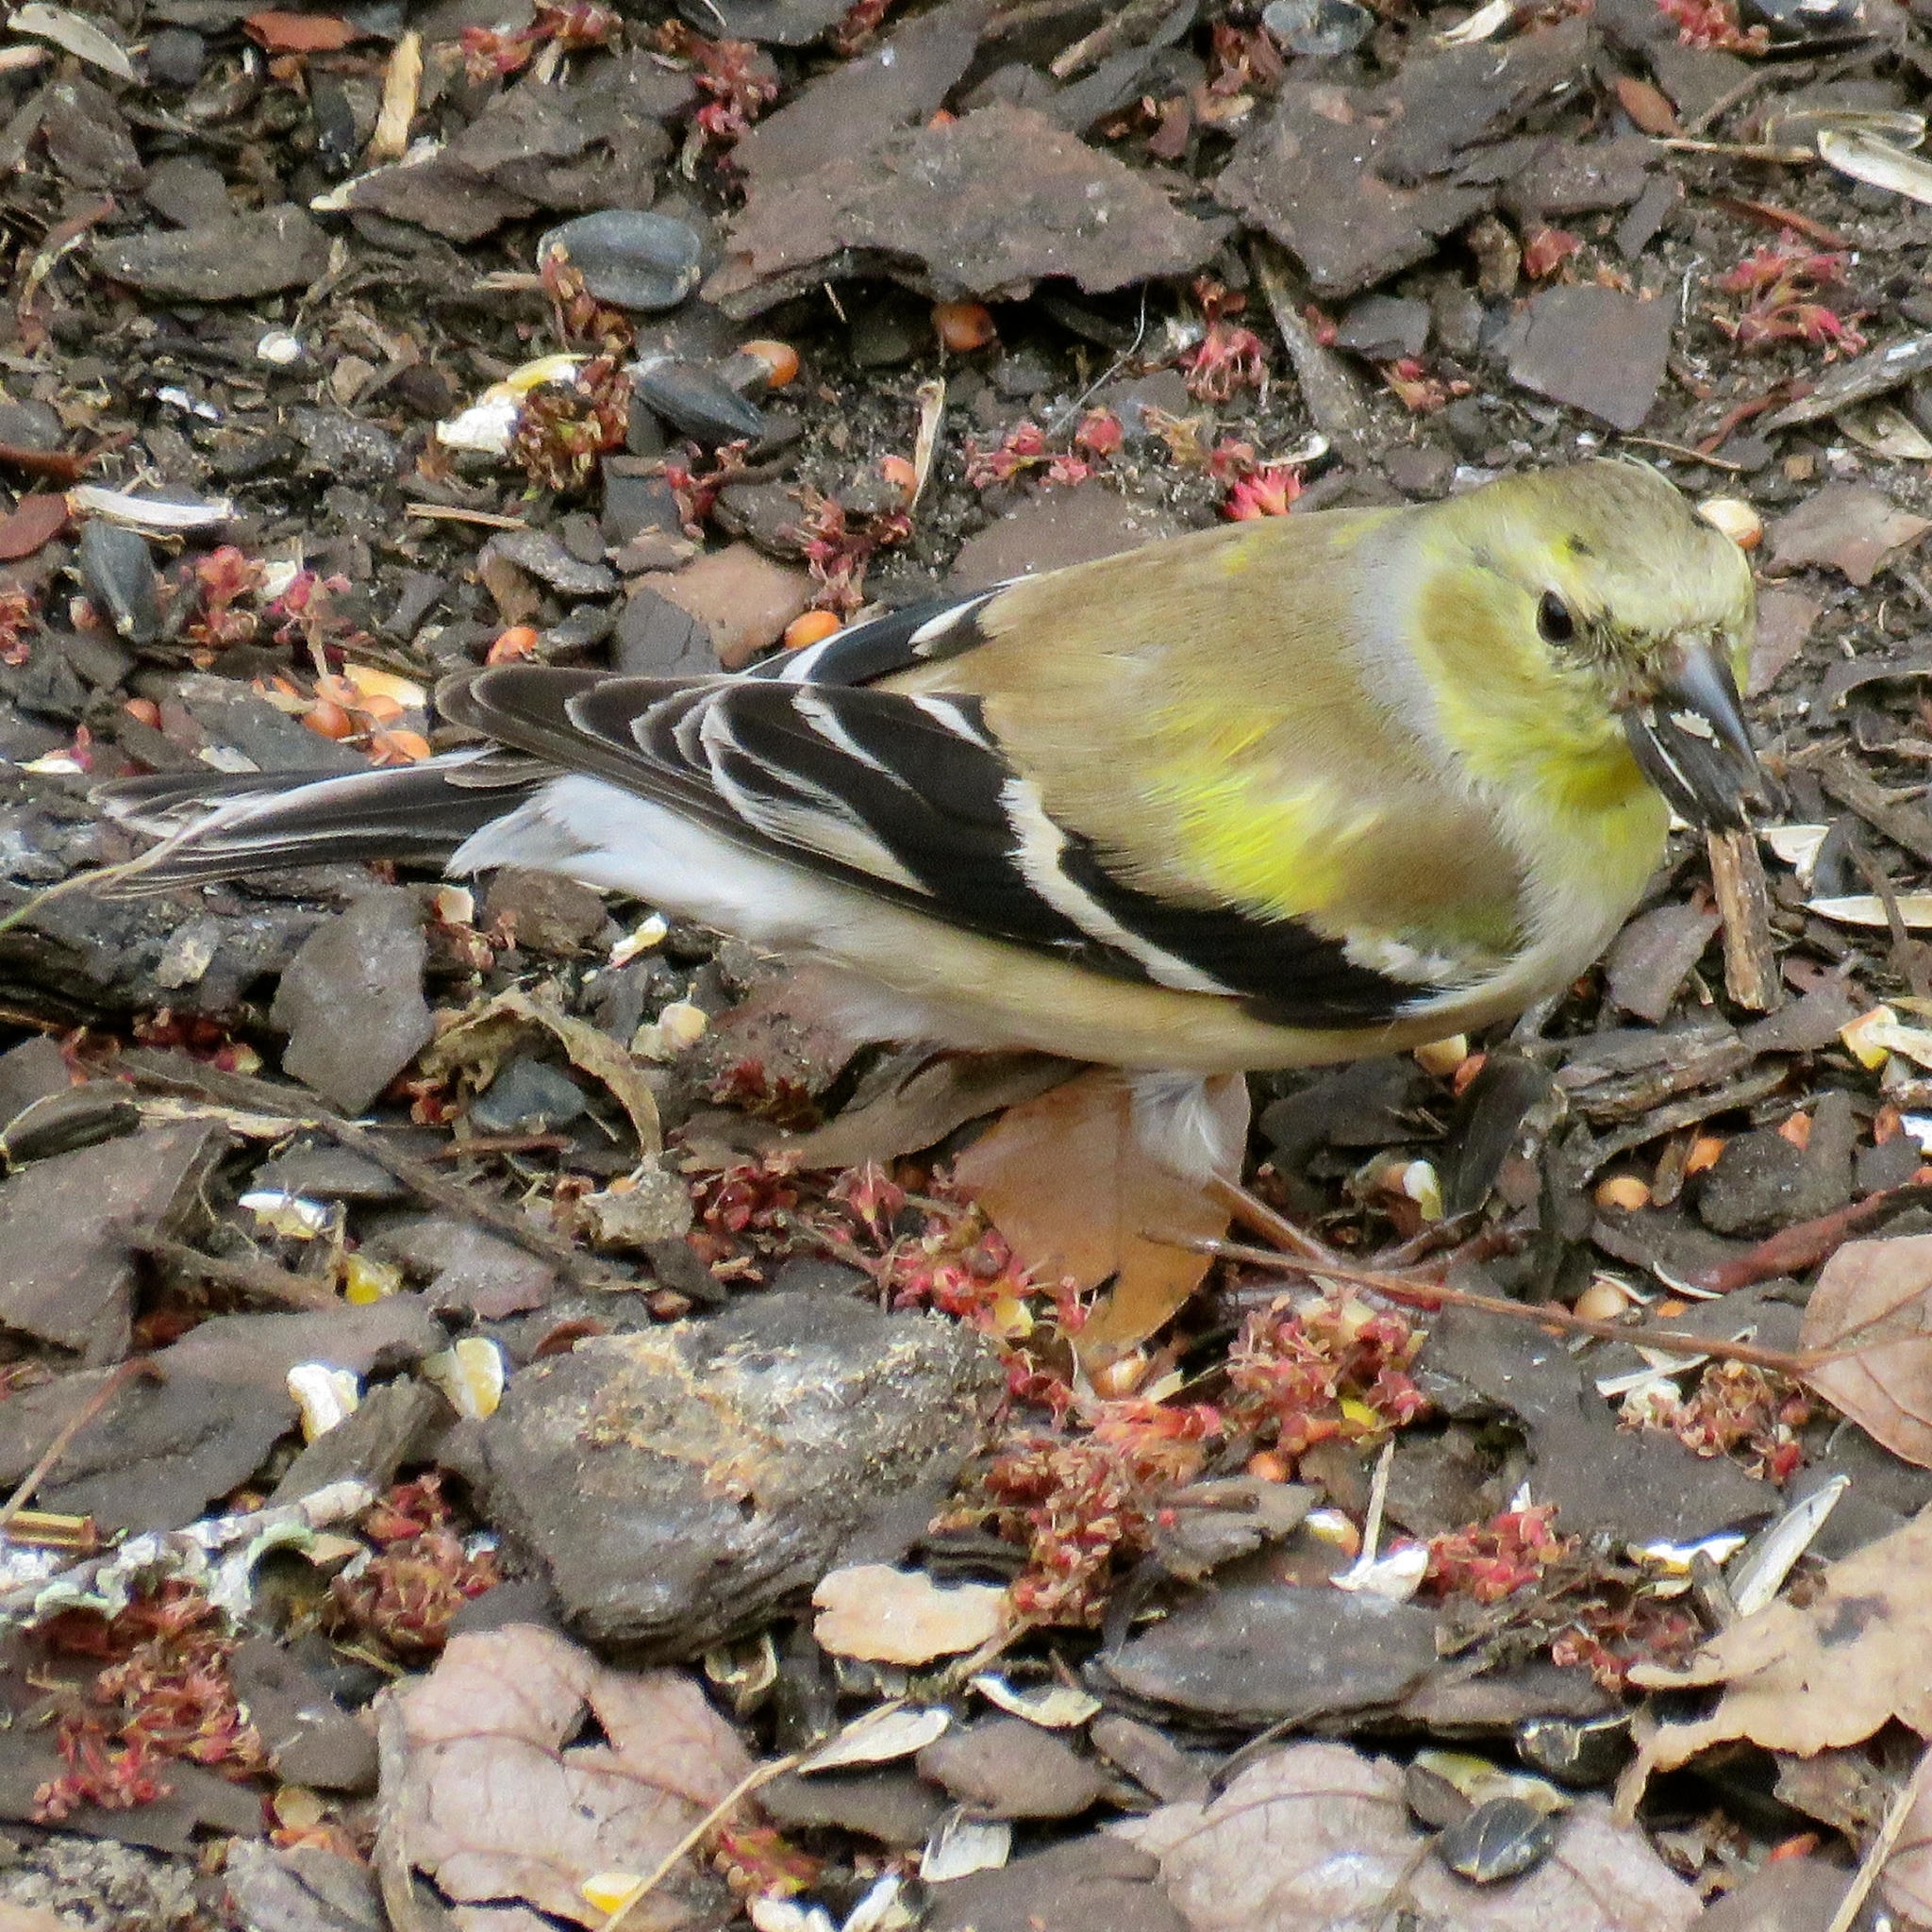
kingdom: Animalia
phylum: Chordata
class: Aves
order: Passeriformes
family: Fringillidae
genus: Spinus
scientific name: Spinus tristis
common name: American goldfinch
